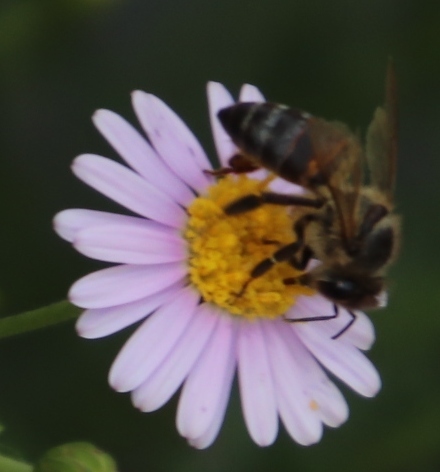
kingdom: Animalia
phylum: Arthropoda
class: Insecta
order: Hymenoptera
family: Apidae
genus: Apis
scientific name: Apis mellifera
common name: Honey bee
